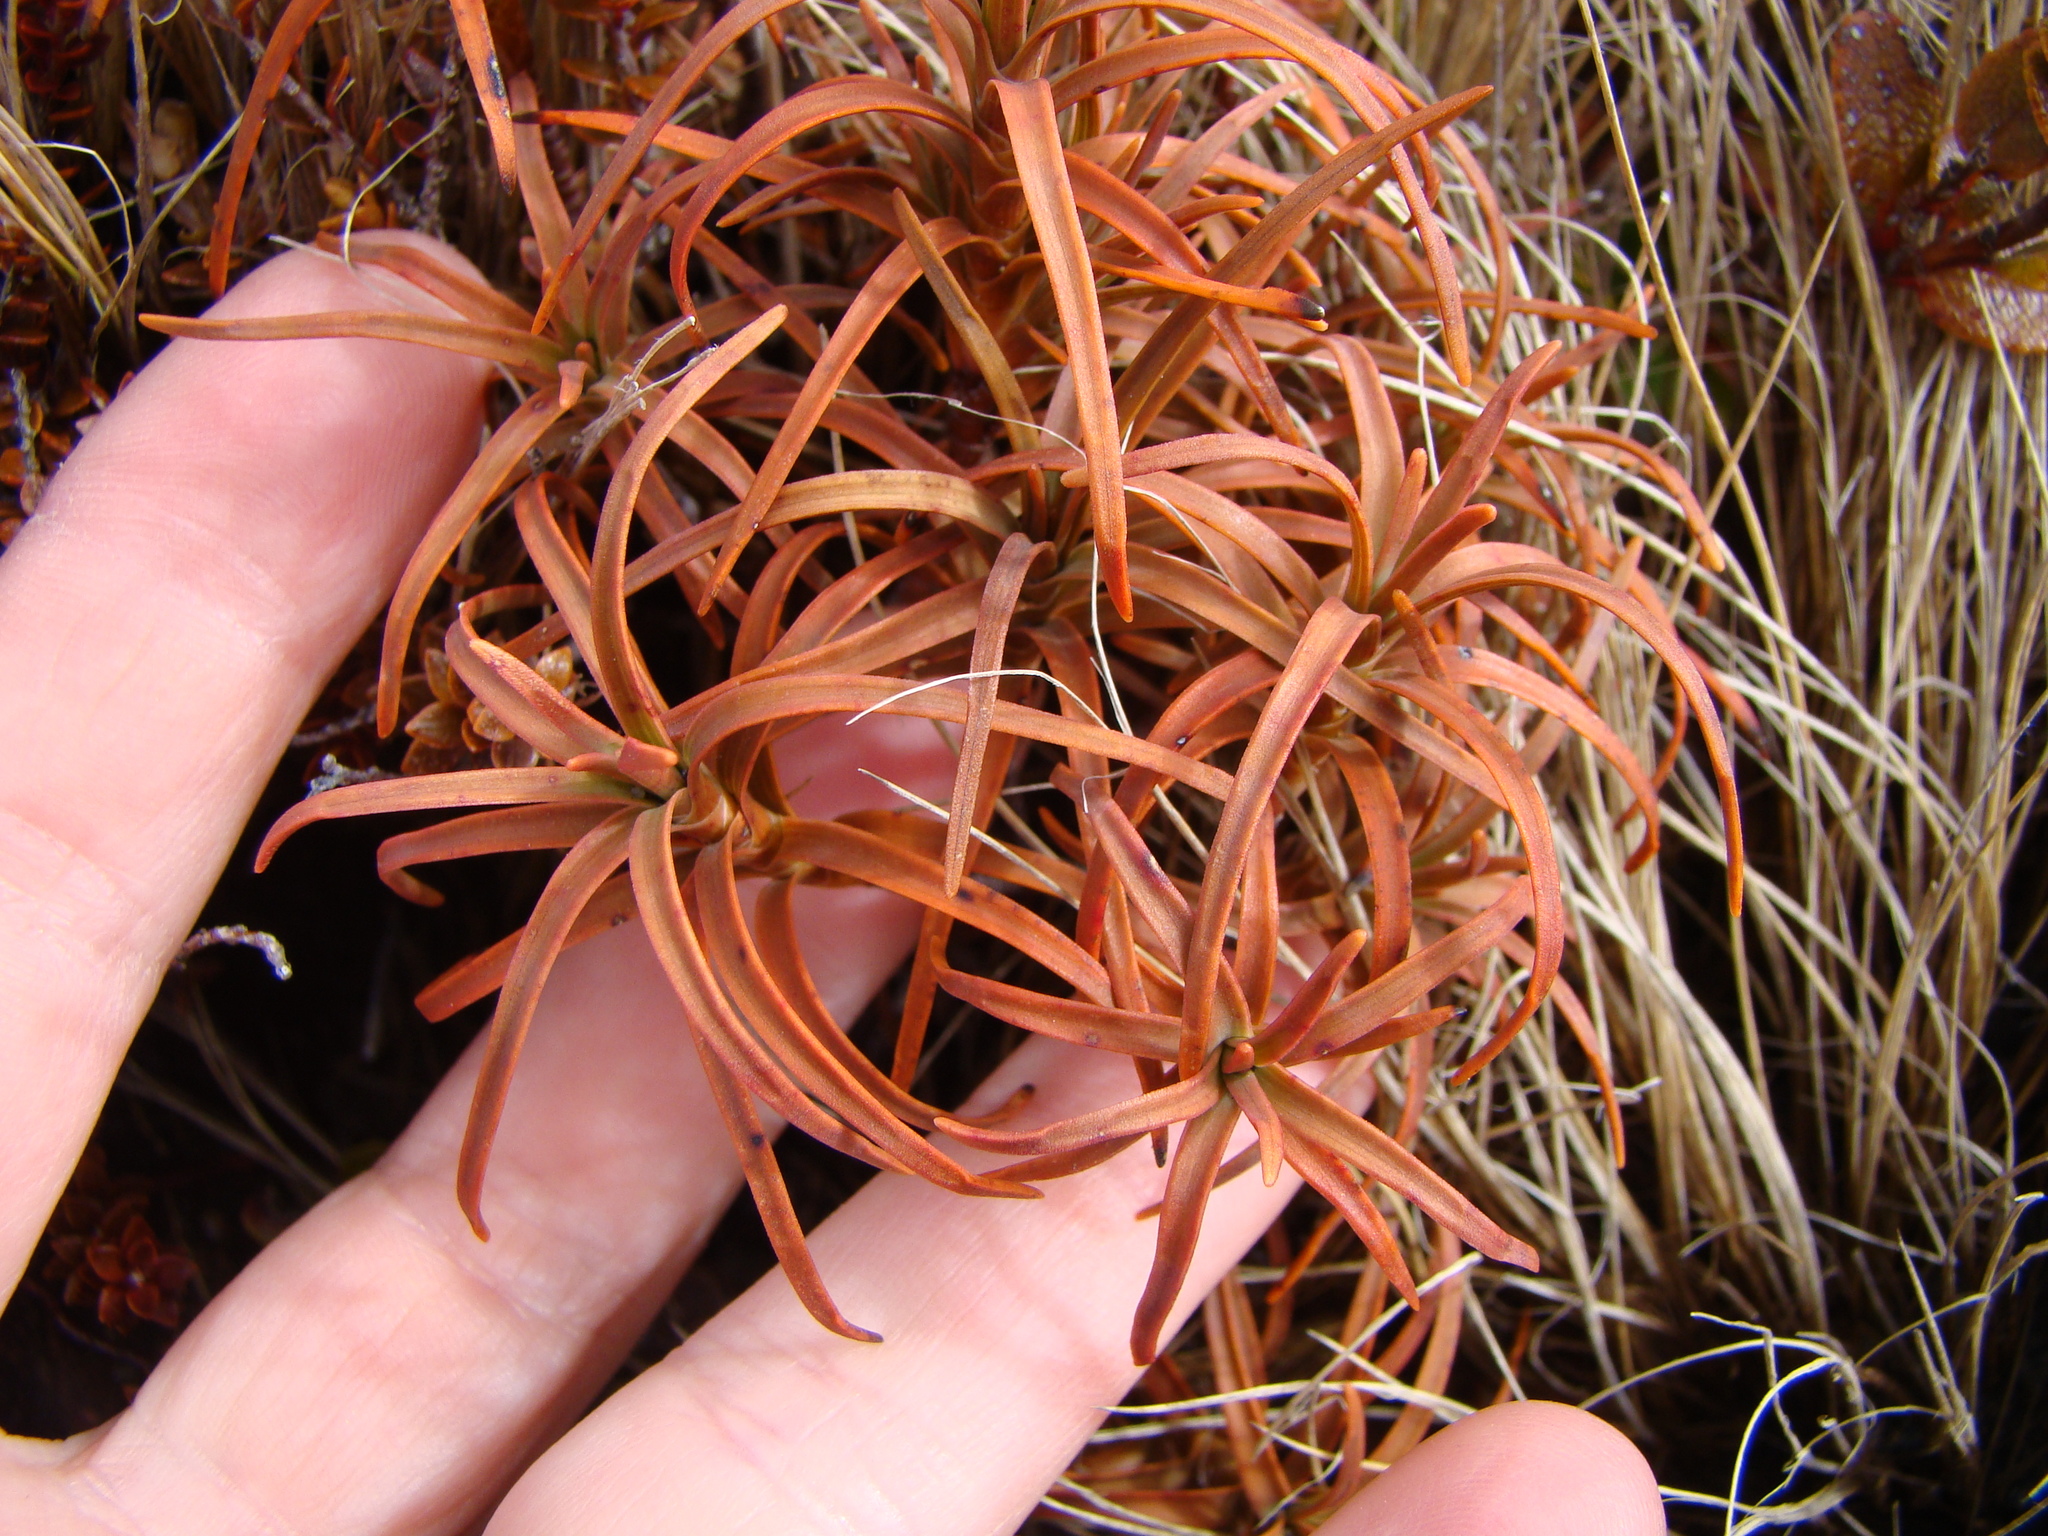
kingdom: Plantae
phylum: Tracheophyta
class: Magnoliopsida
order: Ericales
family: Ericaceae
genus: Dracophyllum
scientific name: Dracophyllum recurvum
